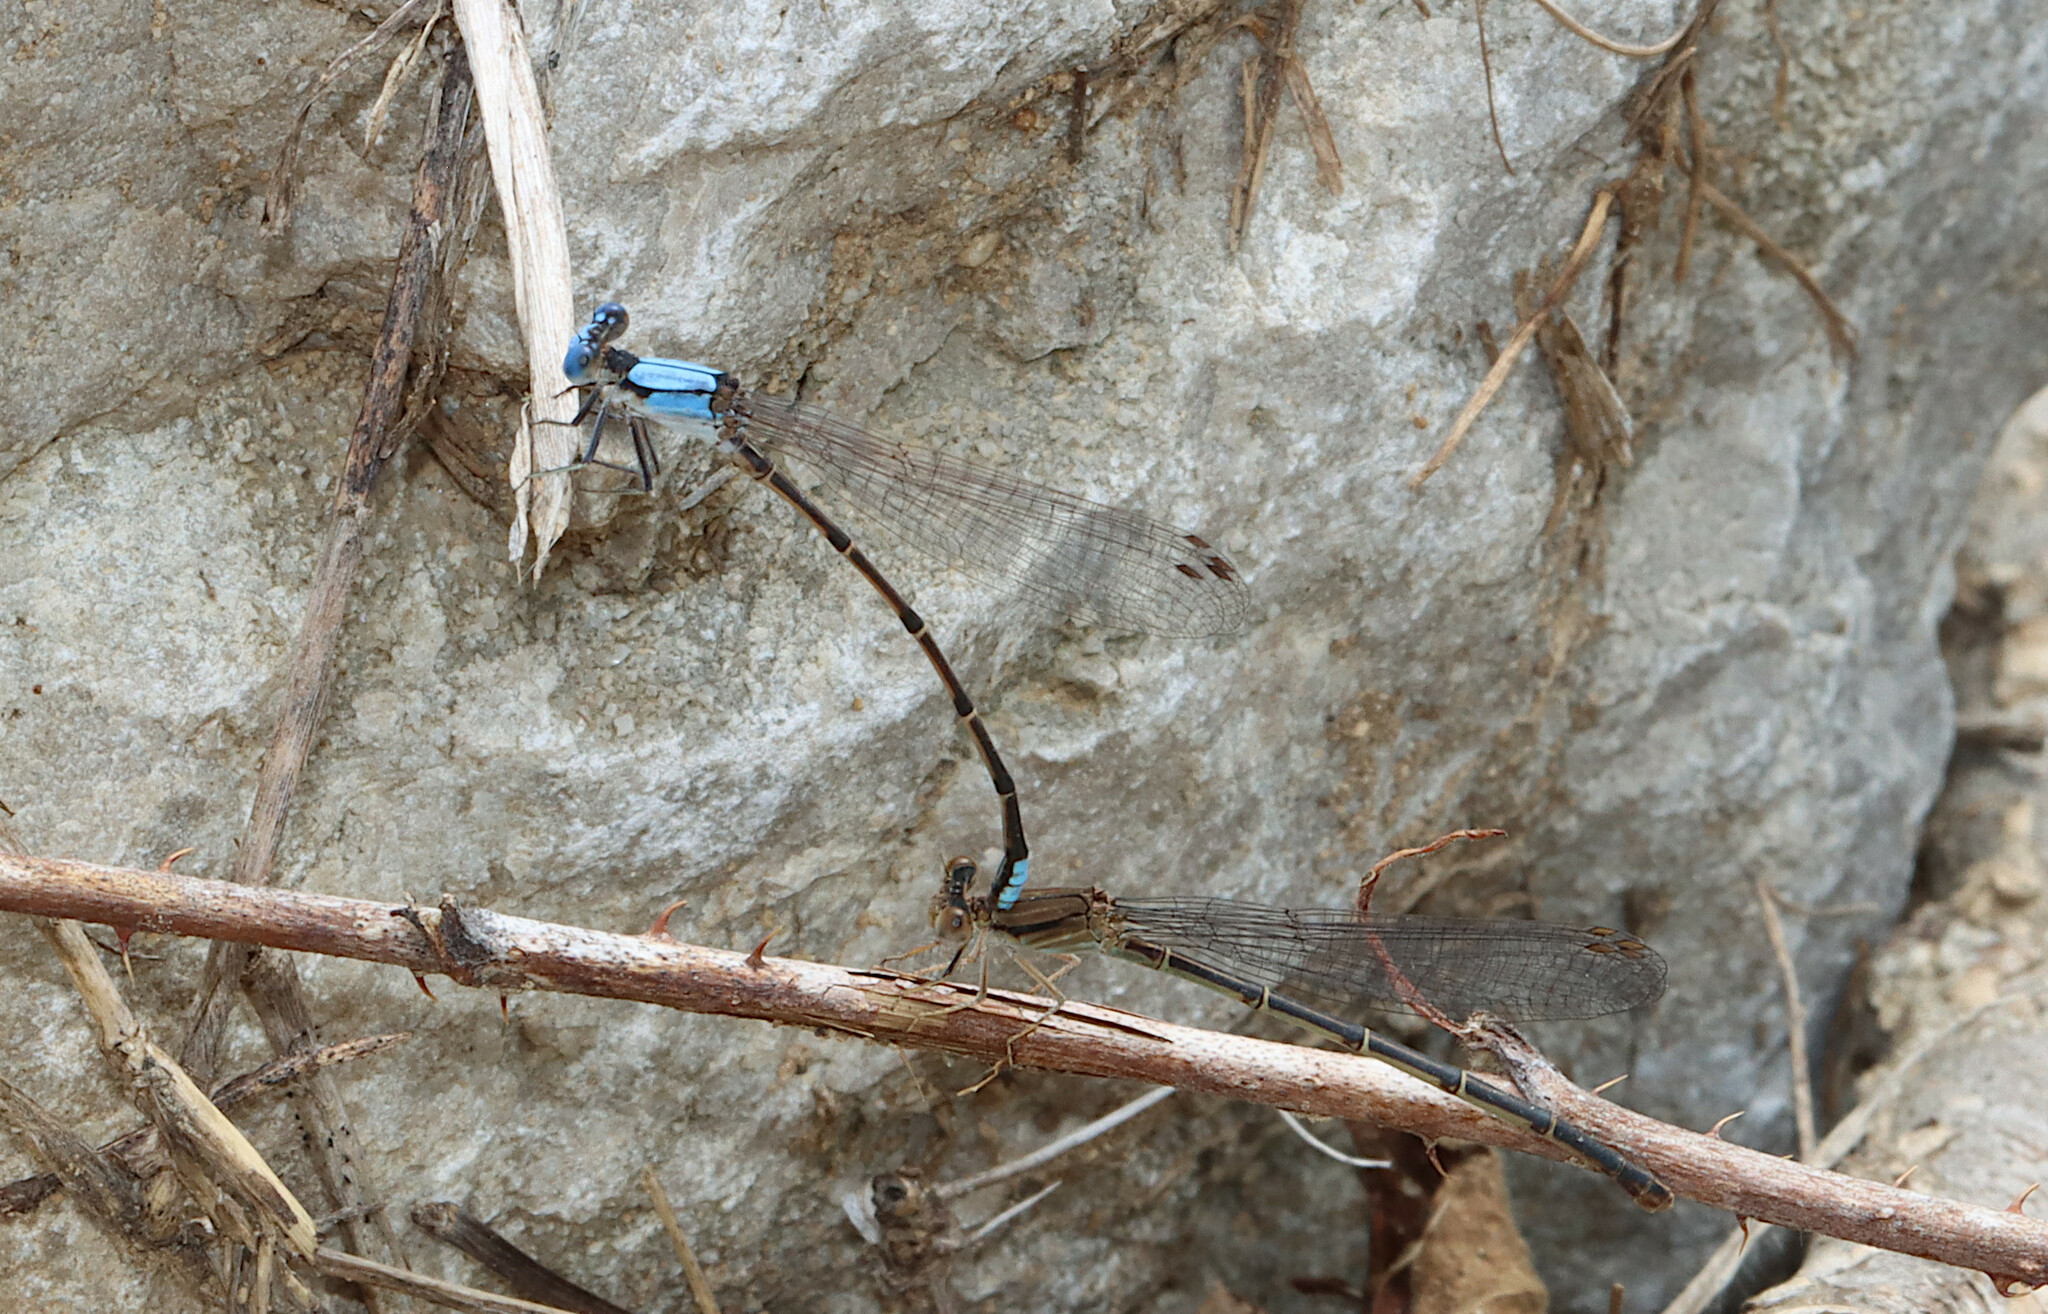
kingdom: Animalia
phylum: Arthropoda
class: Insecta
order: Odonata
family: Coenagrionidae
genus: Argia
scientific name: Argia apicalis
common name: Blue-fronted dancer
